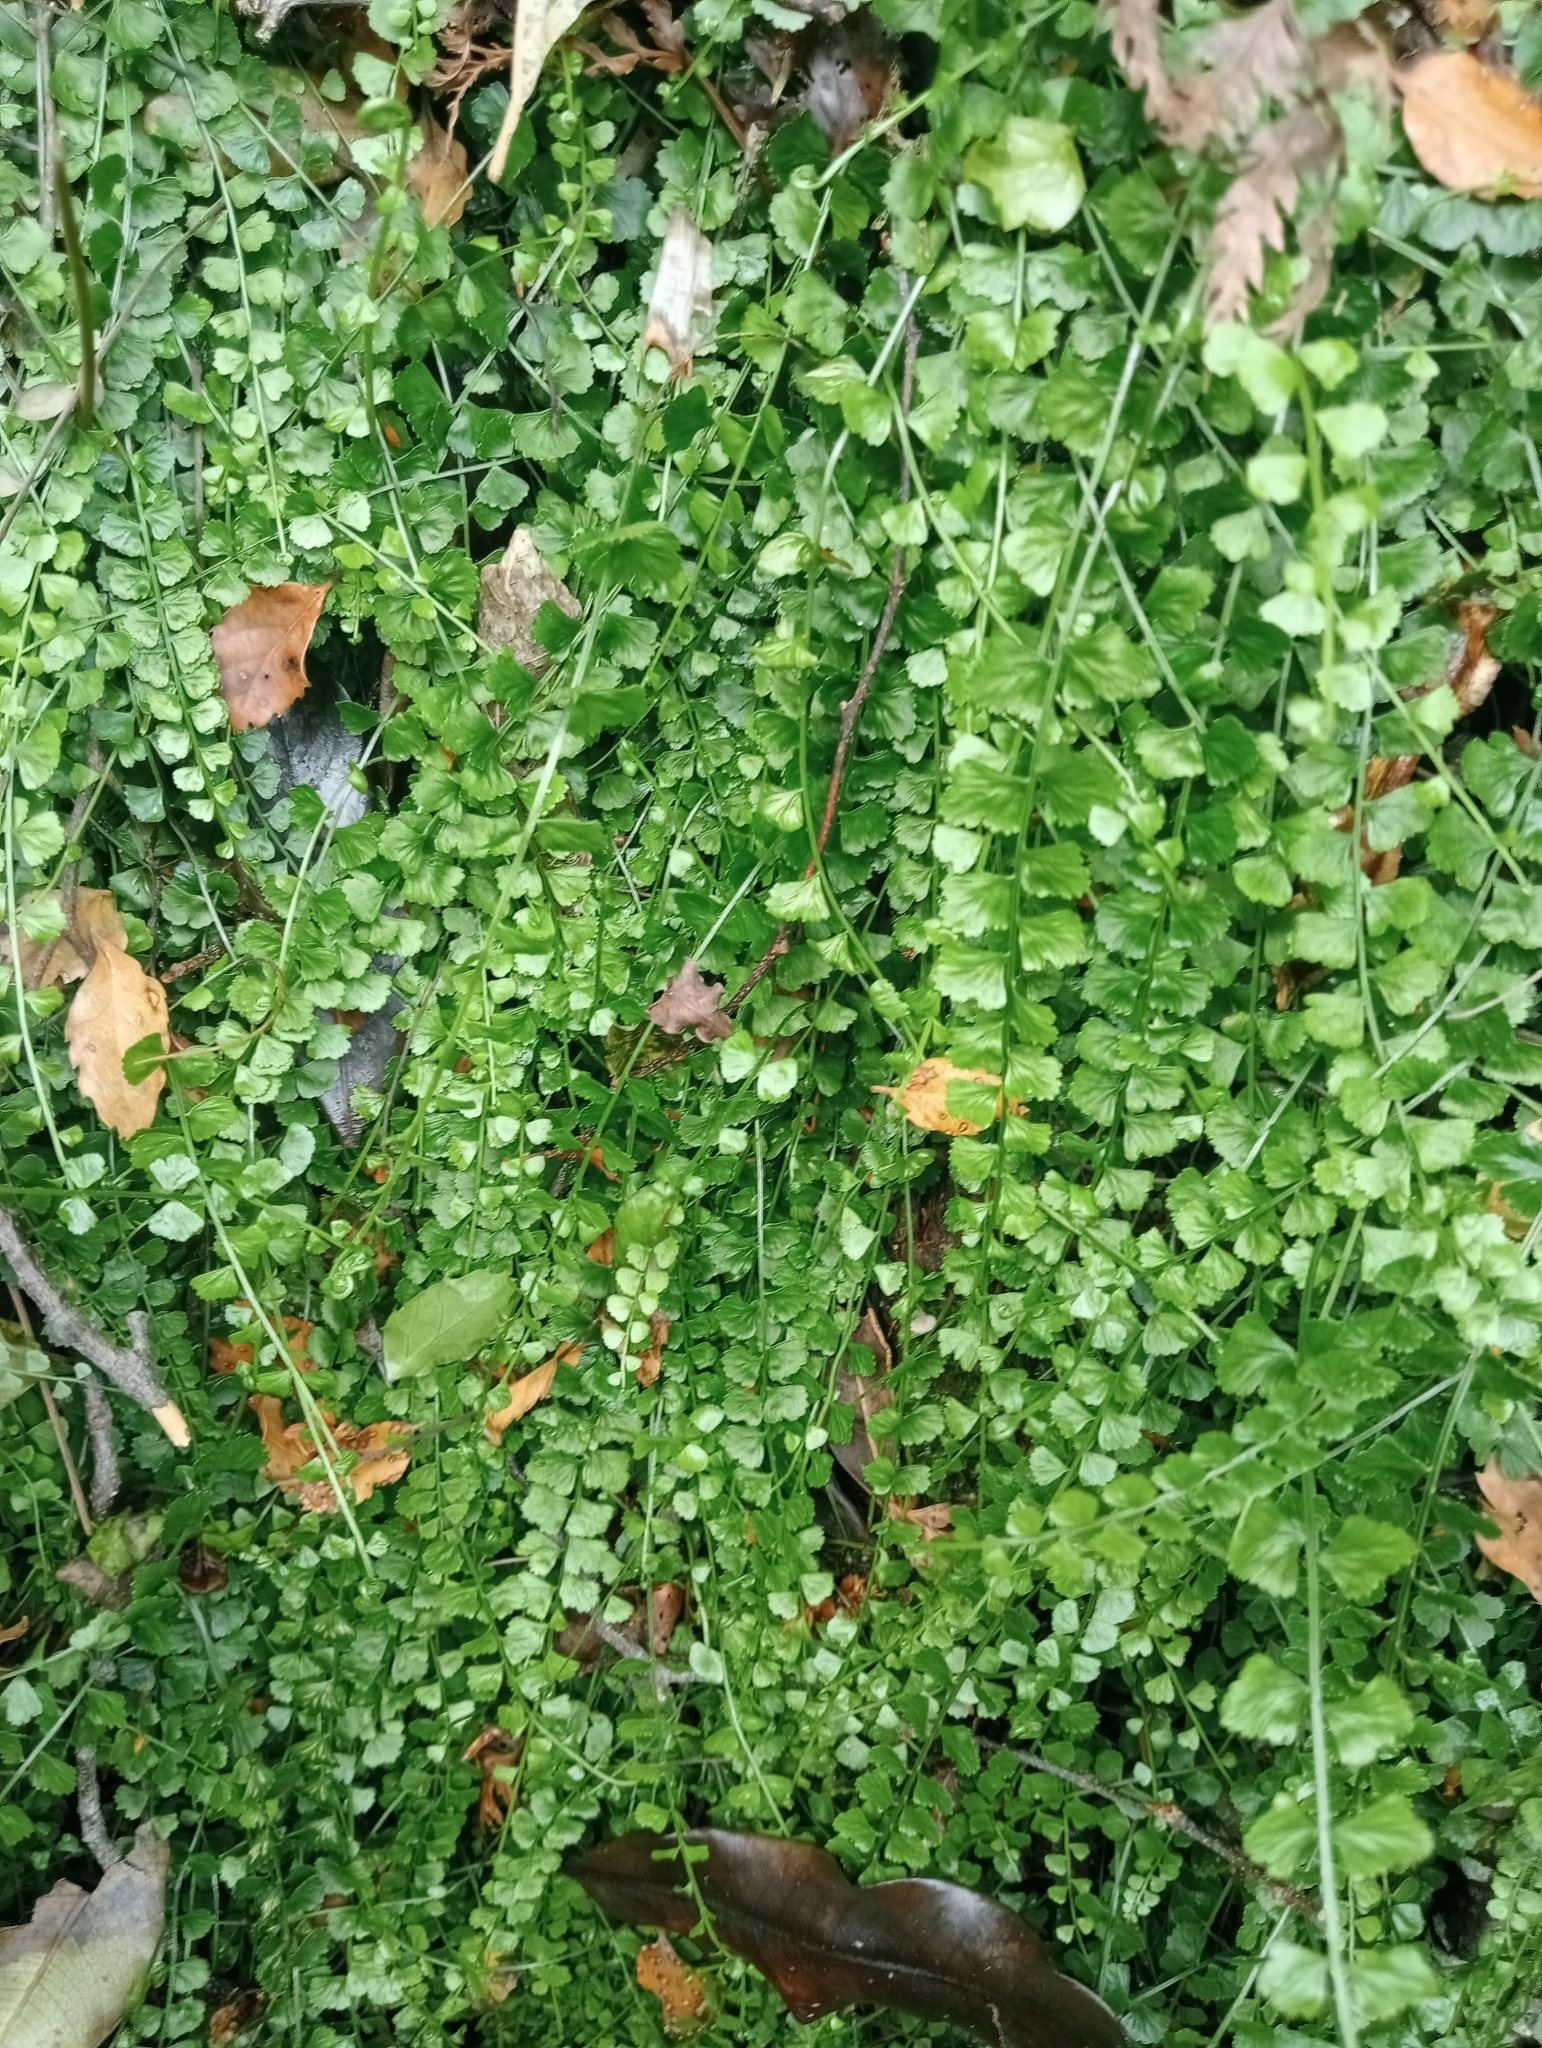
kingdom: Plantae
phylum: Tracheophyta
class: Polypodiopsida
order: Polypodiales
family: Aspleniaceae
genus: Asplenium
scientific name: Asplenium flabellifolium
